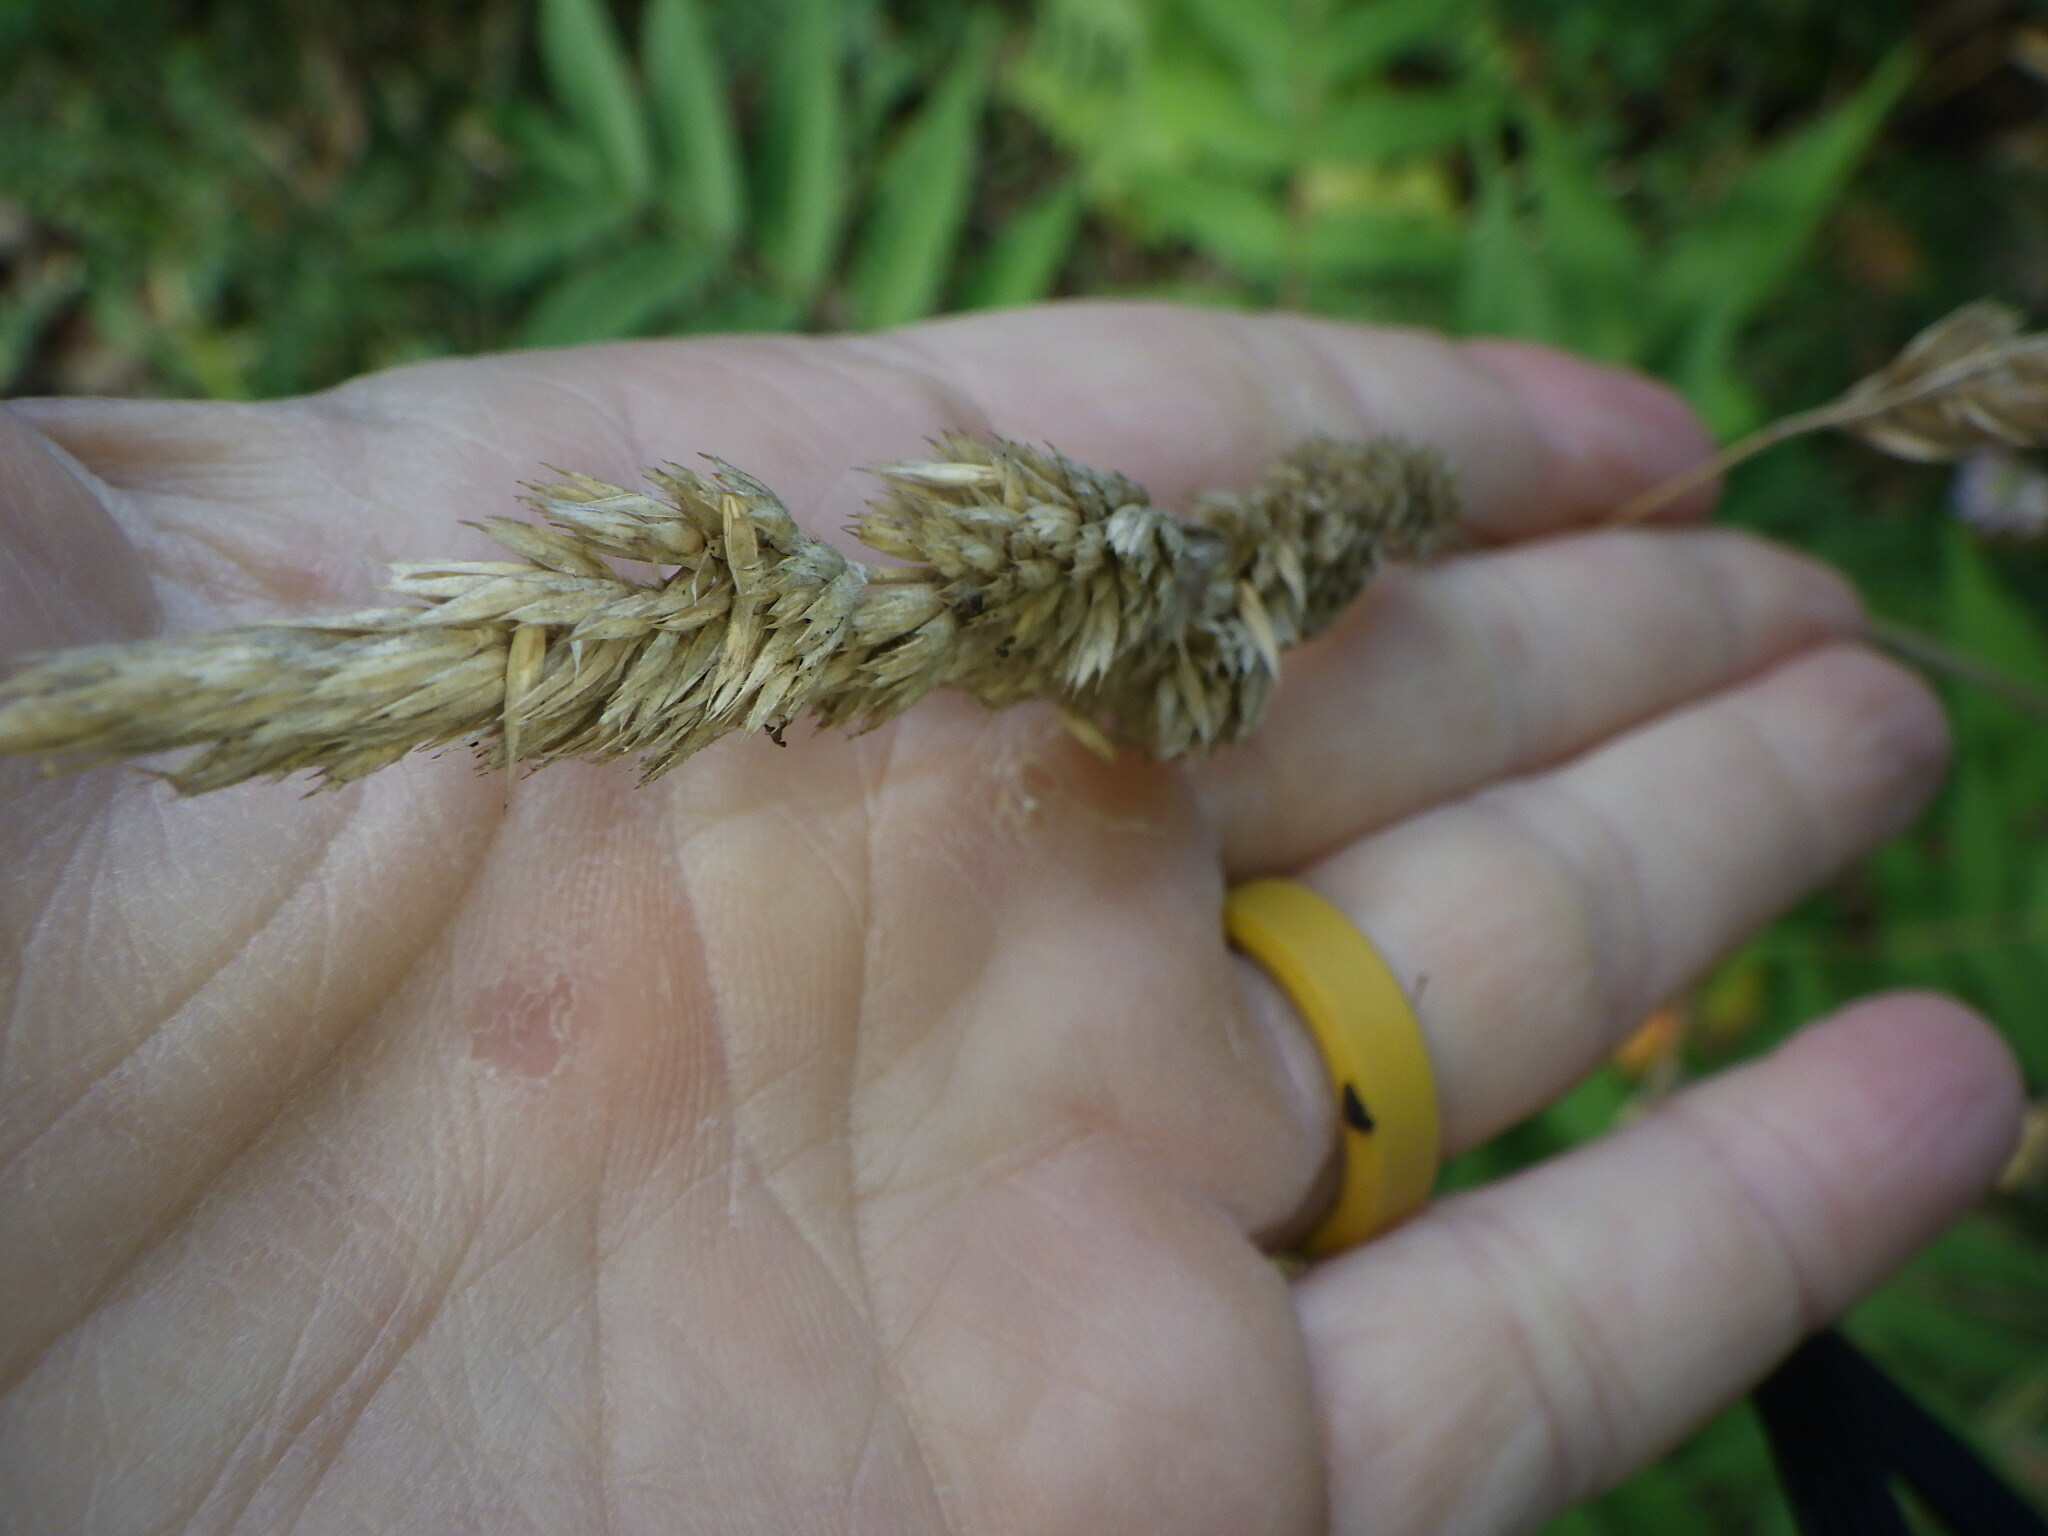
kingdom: Plantae
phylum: Tracheophyta
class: Liliopsida
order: Poales
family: Poaceae
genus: Dactylis
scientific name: Dactylis glomerata
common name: Orchardgrass
